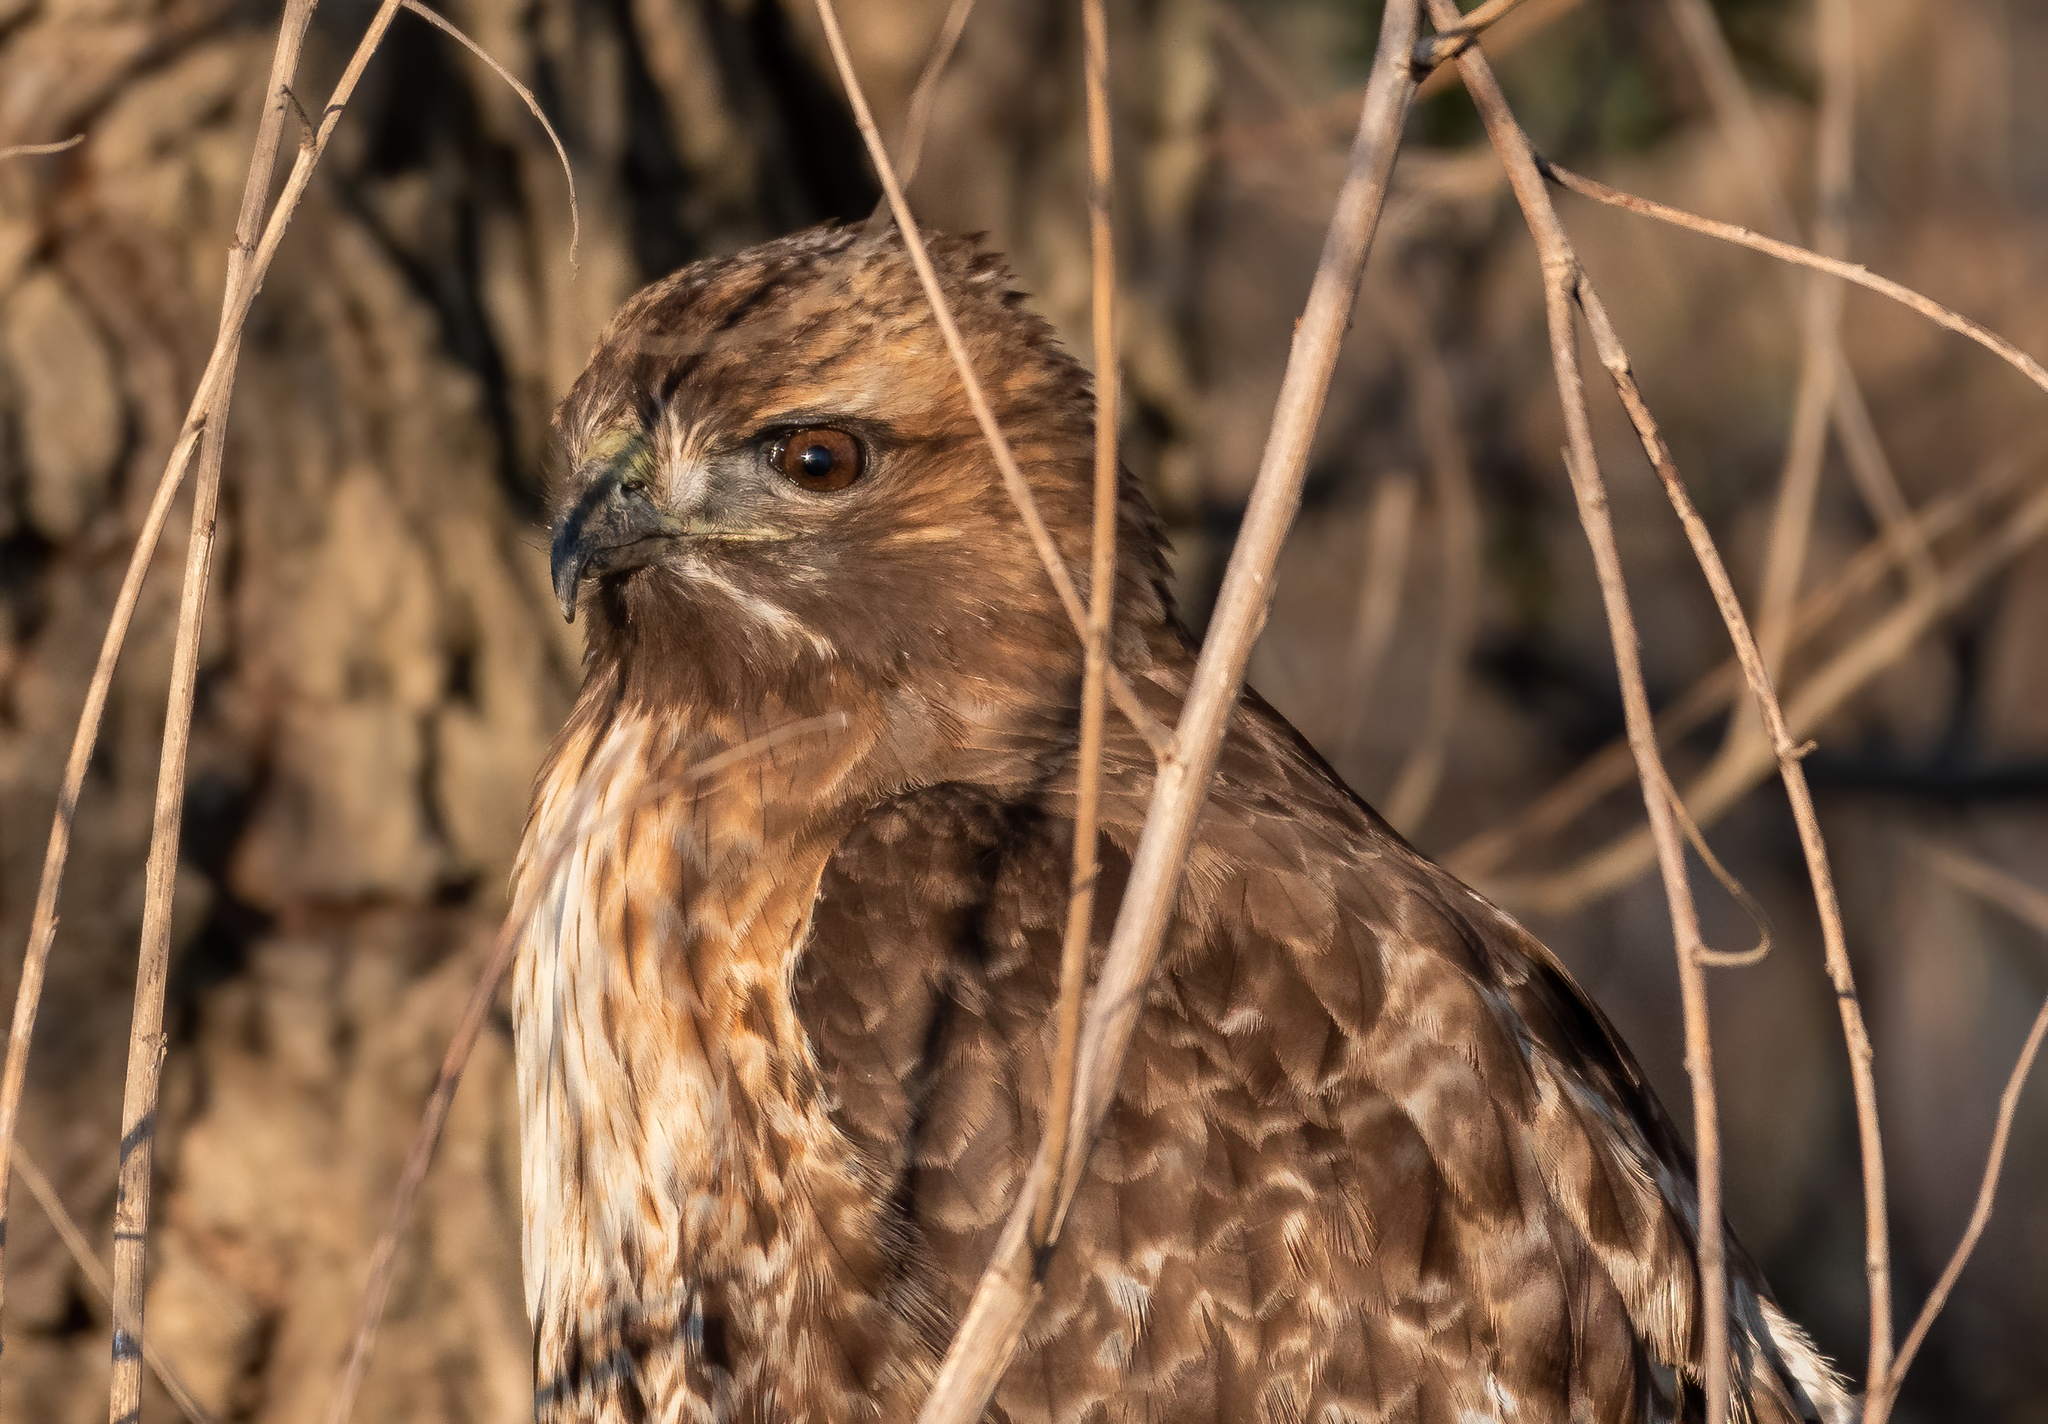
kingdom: Animalia
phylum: Chordata
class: Aves
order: Accipitriformes
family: Accipitridae
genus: Buteo
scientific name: Buteo jamaicensis
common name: Red-tailed hawk
